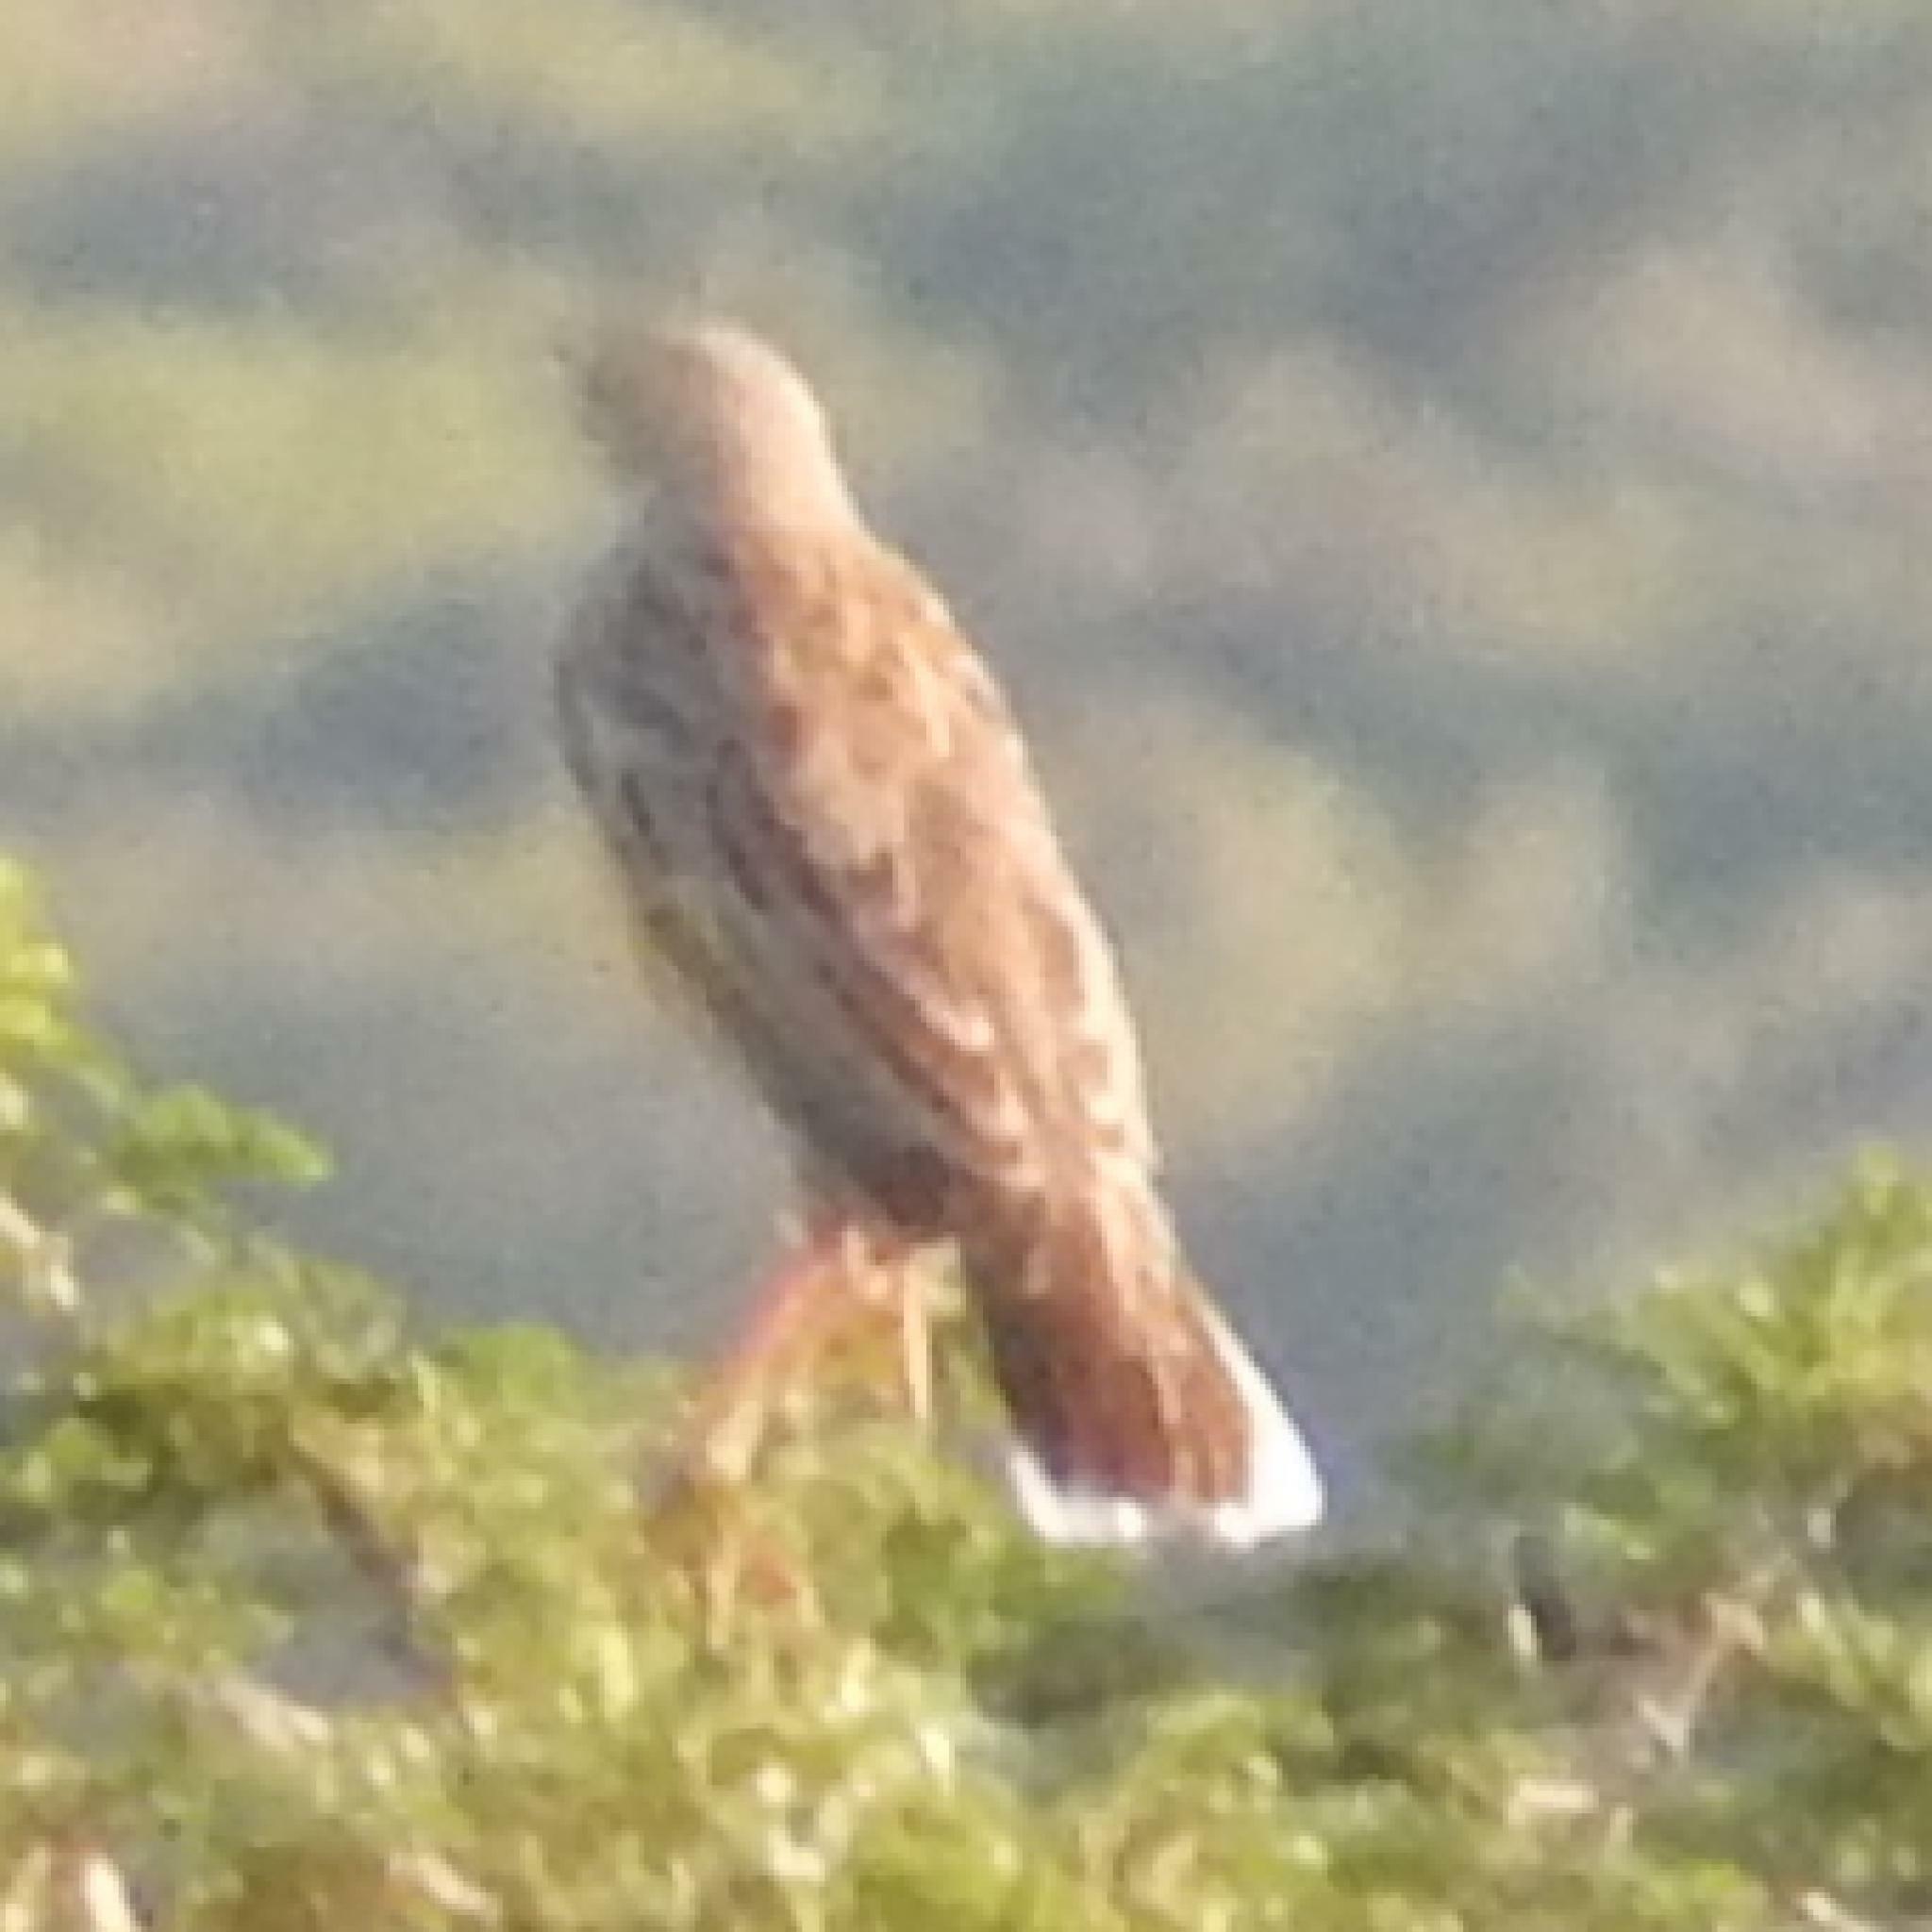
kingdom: Animalia
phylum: Chordata
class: Aves
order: Passeriformes
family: Motacillidae
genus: Macronyx
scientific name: Macronyx capensis
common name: Cape longclaw
